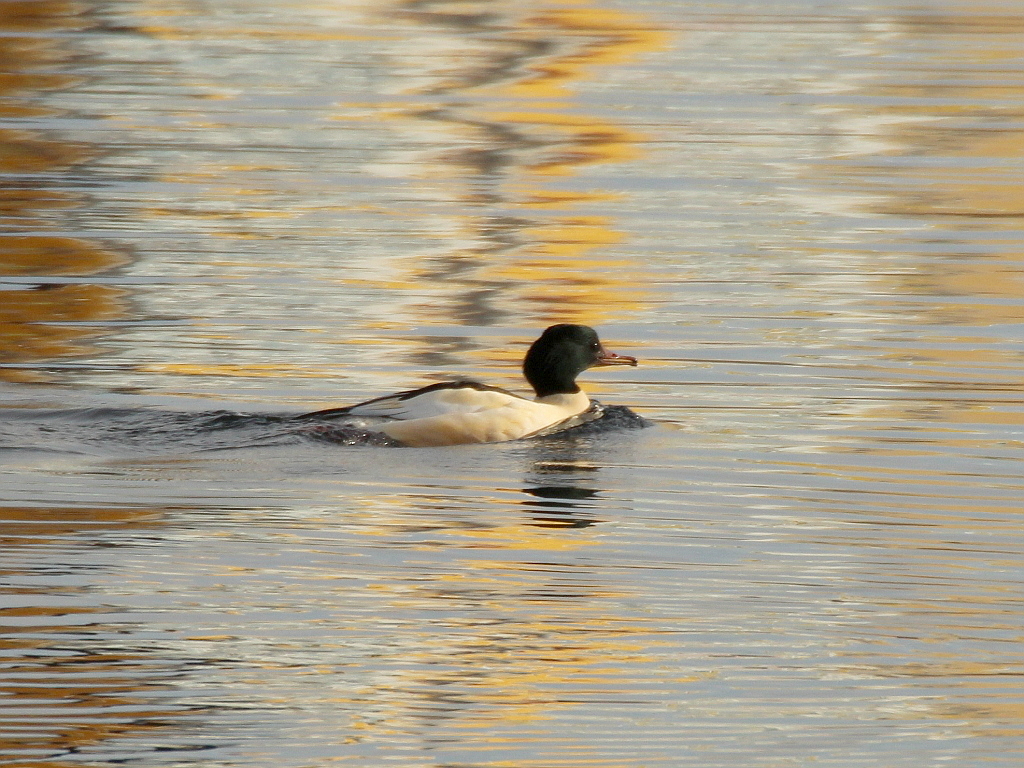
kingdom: Animalia
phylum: Chordata
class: Aves
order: Anseriformes
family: Anatidae
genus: Mergus
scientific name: Mergus merganser
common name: Common merganser
